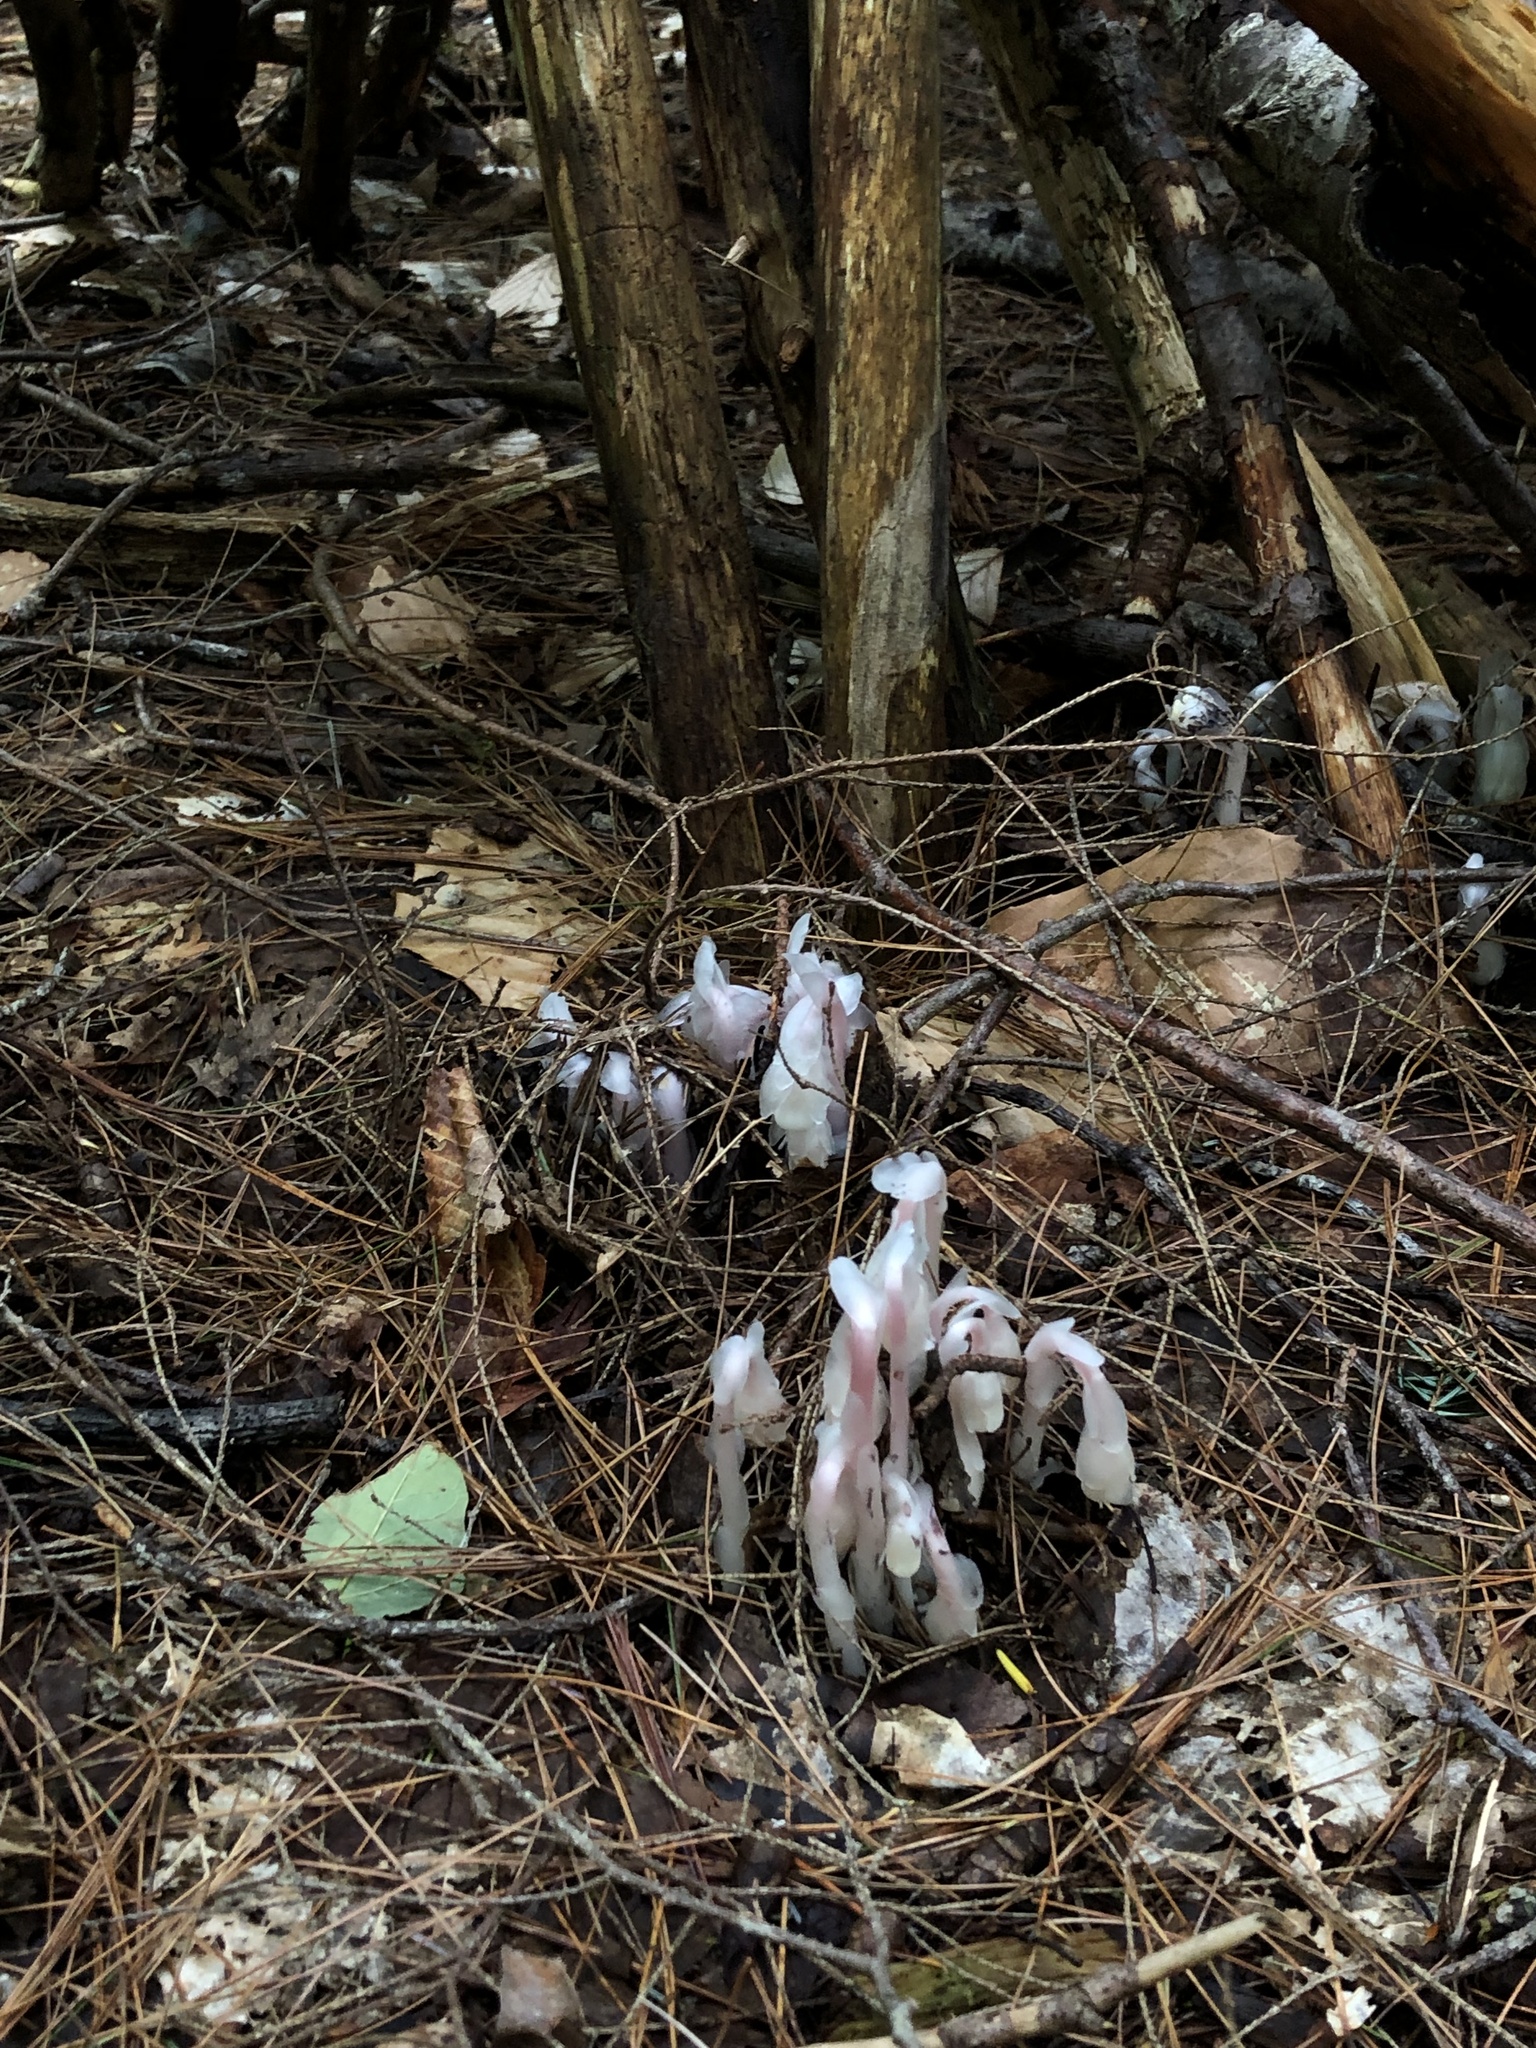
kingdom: Plantae
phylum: Tracheophyta
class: Magnoliopsida
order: Ericales
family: Ericaceae
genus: Monotropa
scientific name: Monotropa uniflora
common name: Convulsion root
